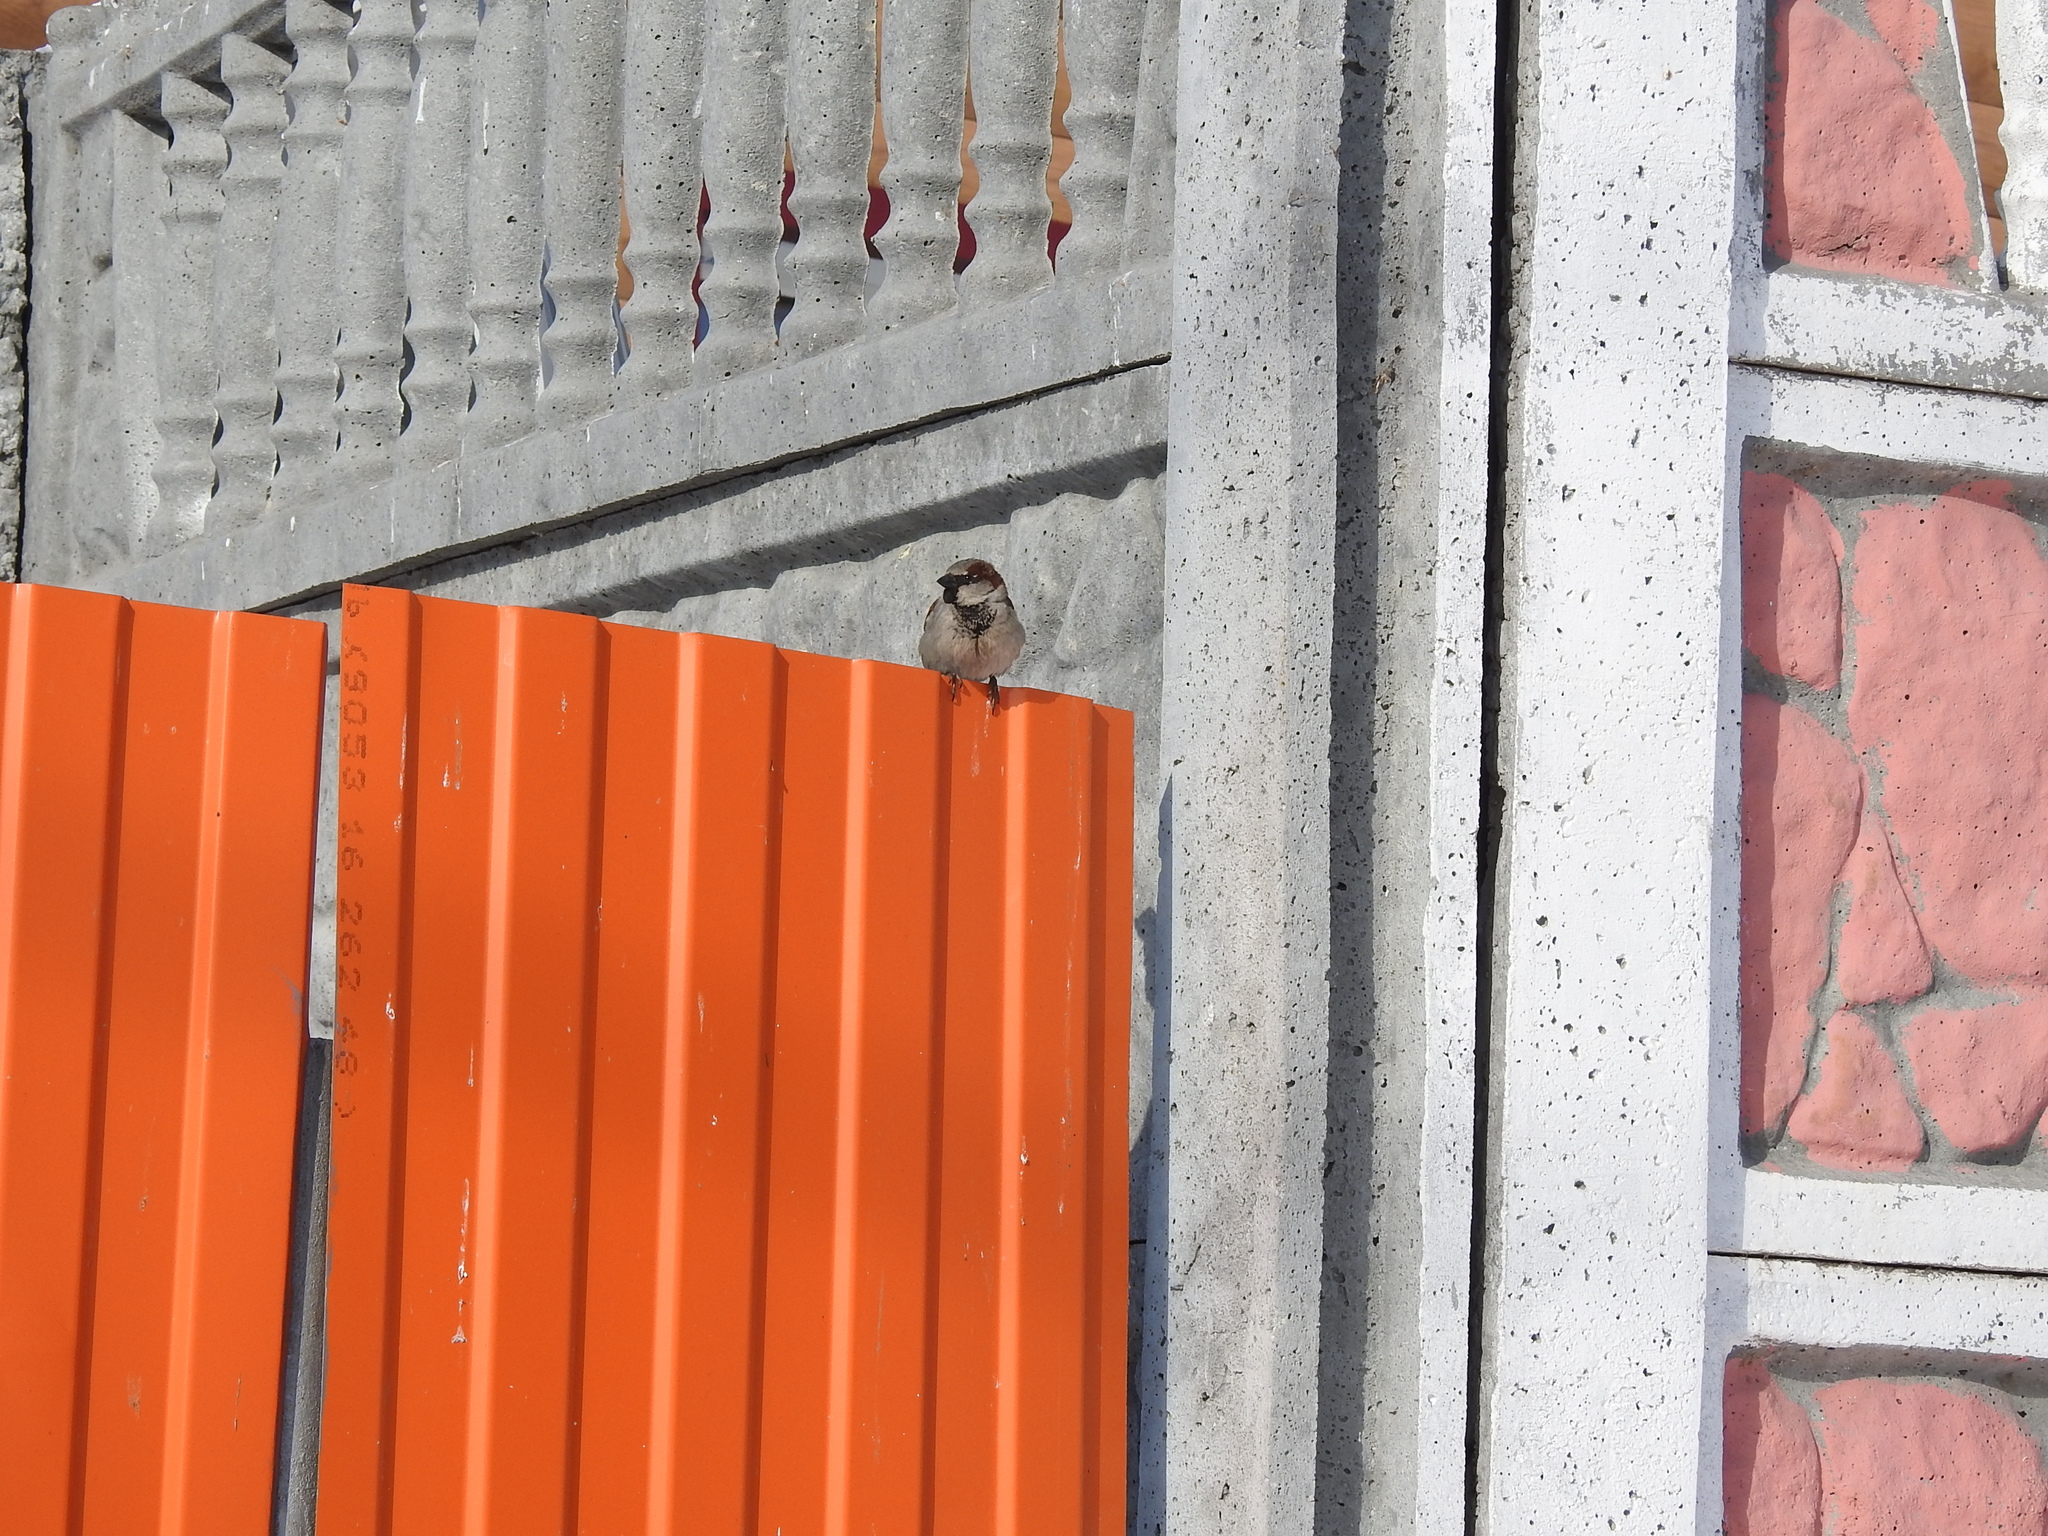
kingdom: Animalia
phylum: Chordata
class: Aves
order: Passeriformes
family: Passeridae
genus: Passer
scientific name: Passer domesticus
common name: House sparrow
